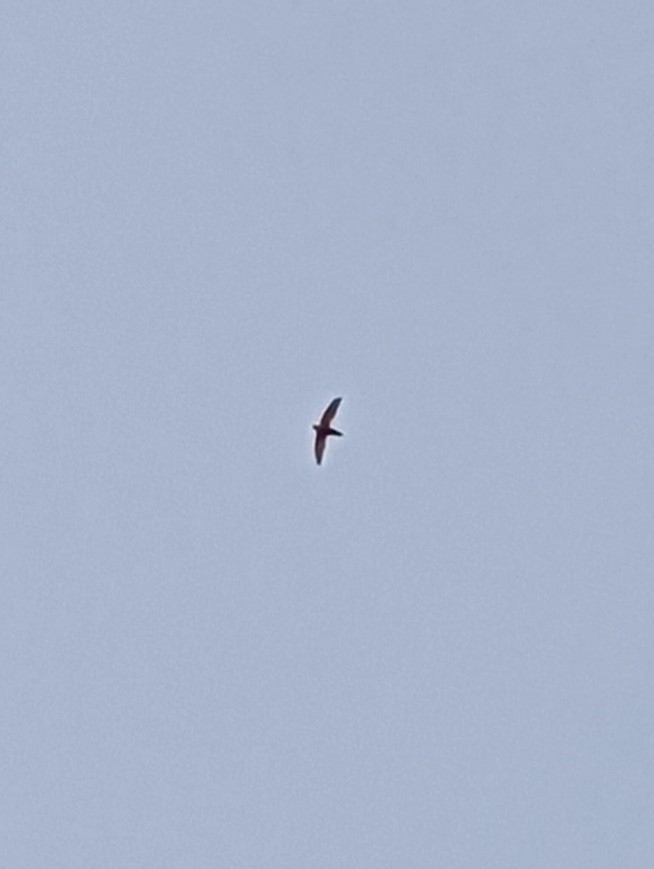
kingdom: Animalia
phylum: Chordata
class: Aves
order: Apodiformes
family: Apodidae
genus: Chaetura
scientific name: Chaetura pelagica
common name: Chimney swift
